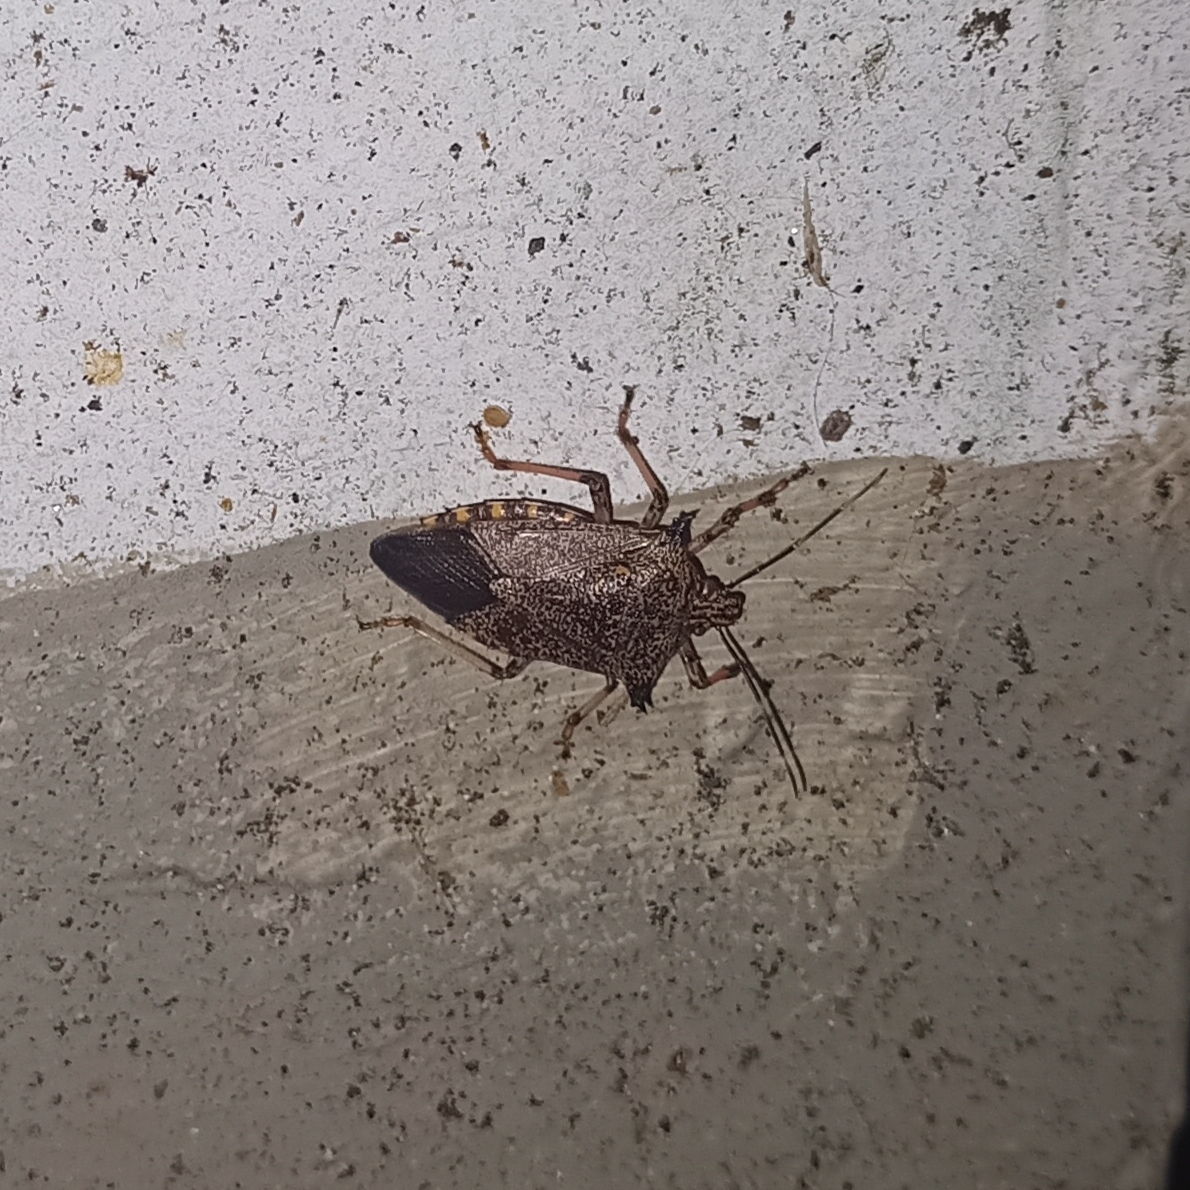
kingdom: Animalia
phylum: Arthropoda
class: Insecta
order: Hemiptera
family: Pentatomidae
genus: Alcaeorrhynchus
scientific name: Alcaeorrhynchus grandis
